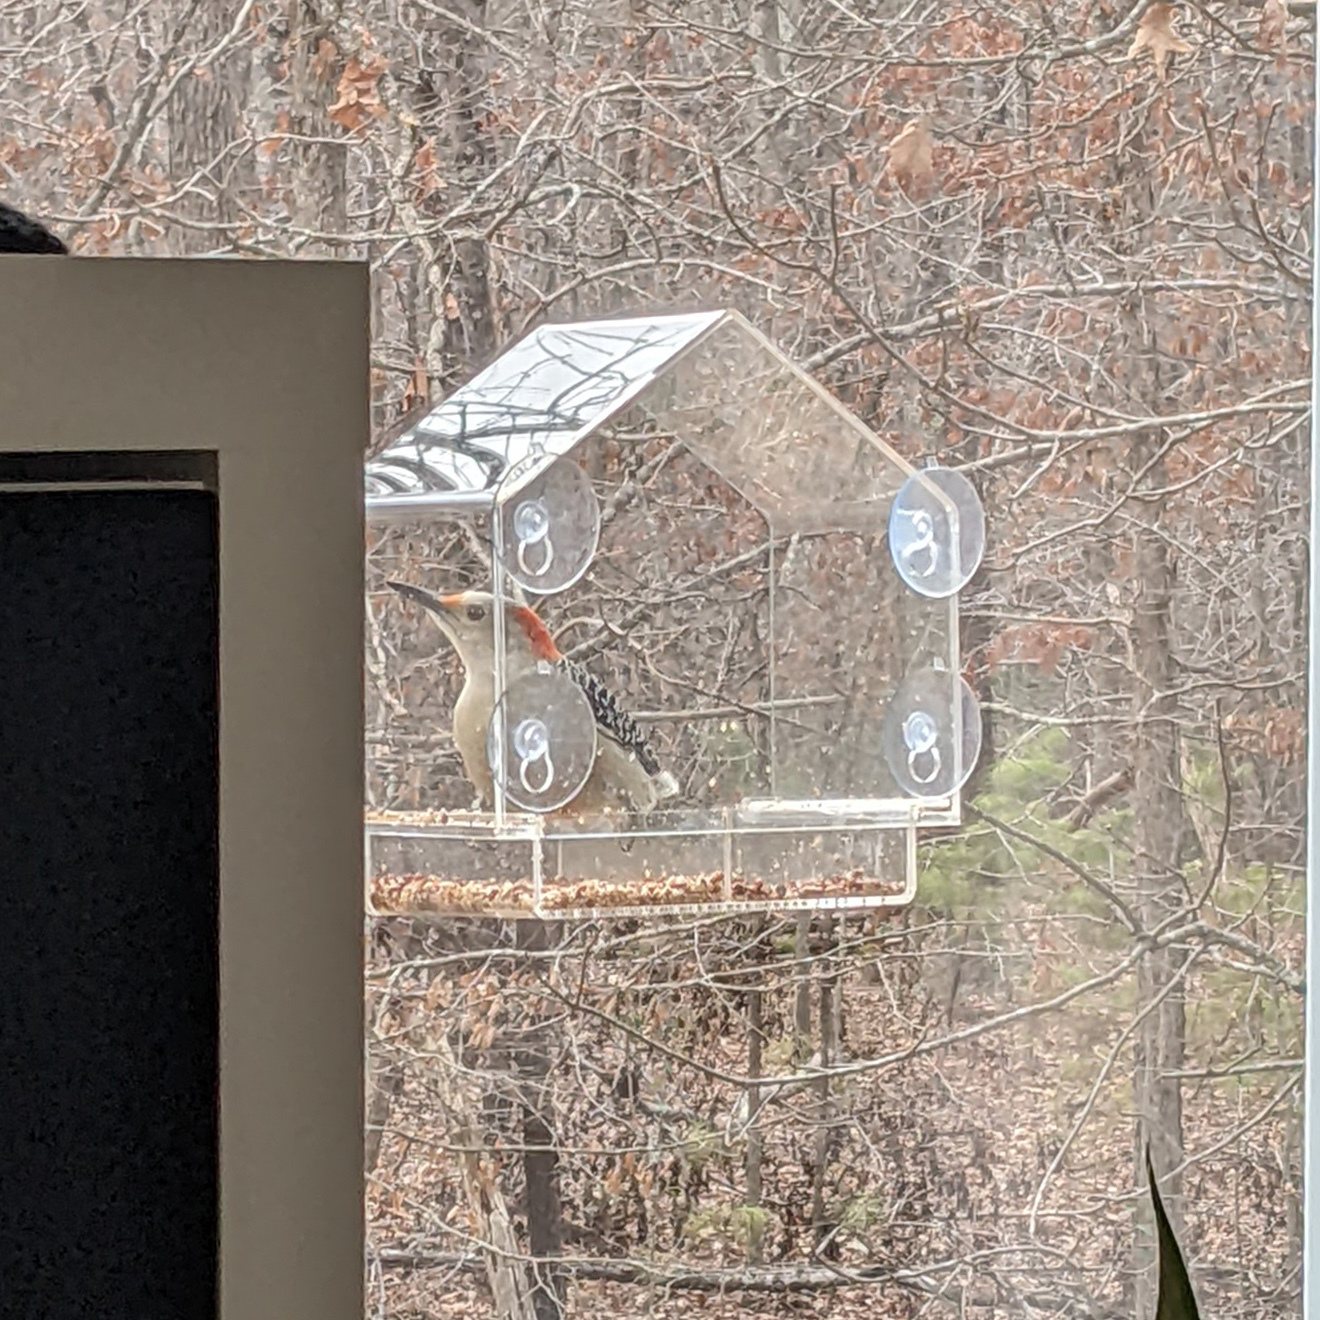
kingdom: Animalia
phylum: Chordata
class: Aves
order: Piciformes
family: Picidae
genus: Melanerpes
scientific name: Melanerpes carolinus
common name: Red-bellied woodpecker
